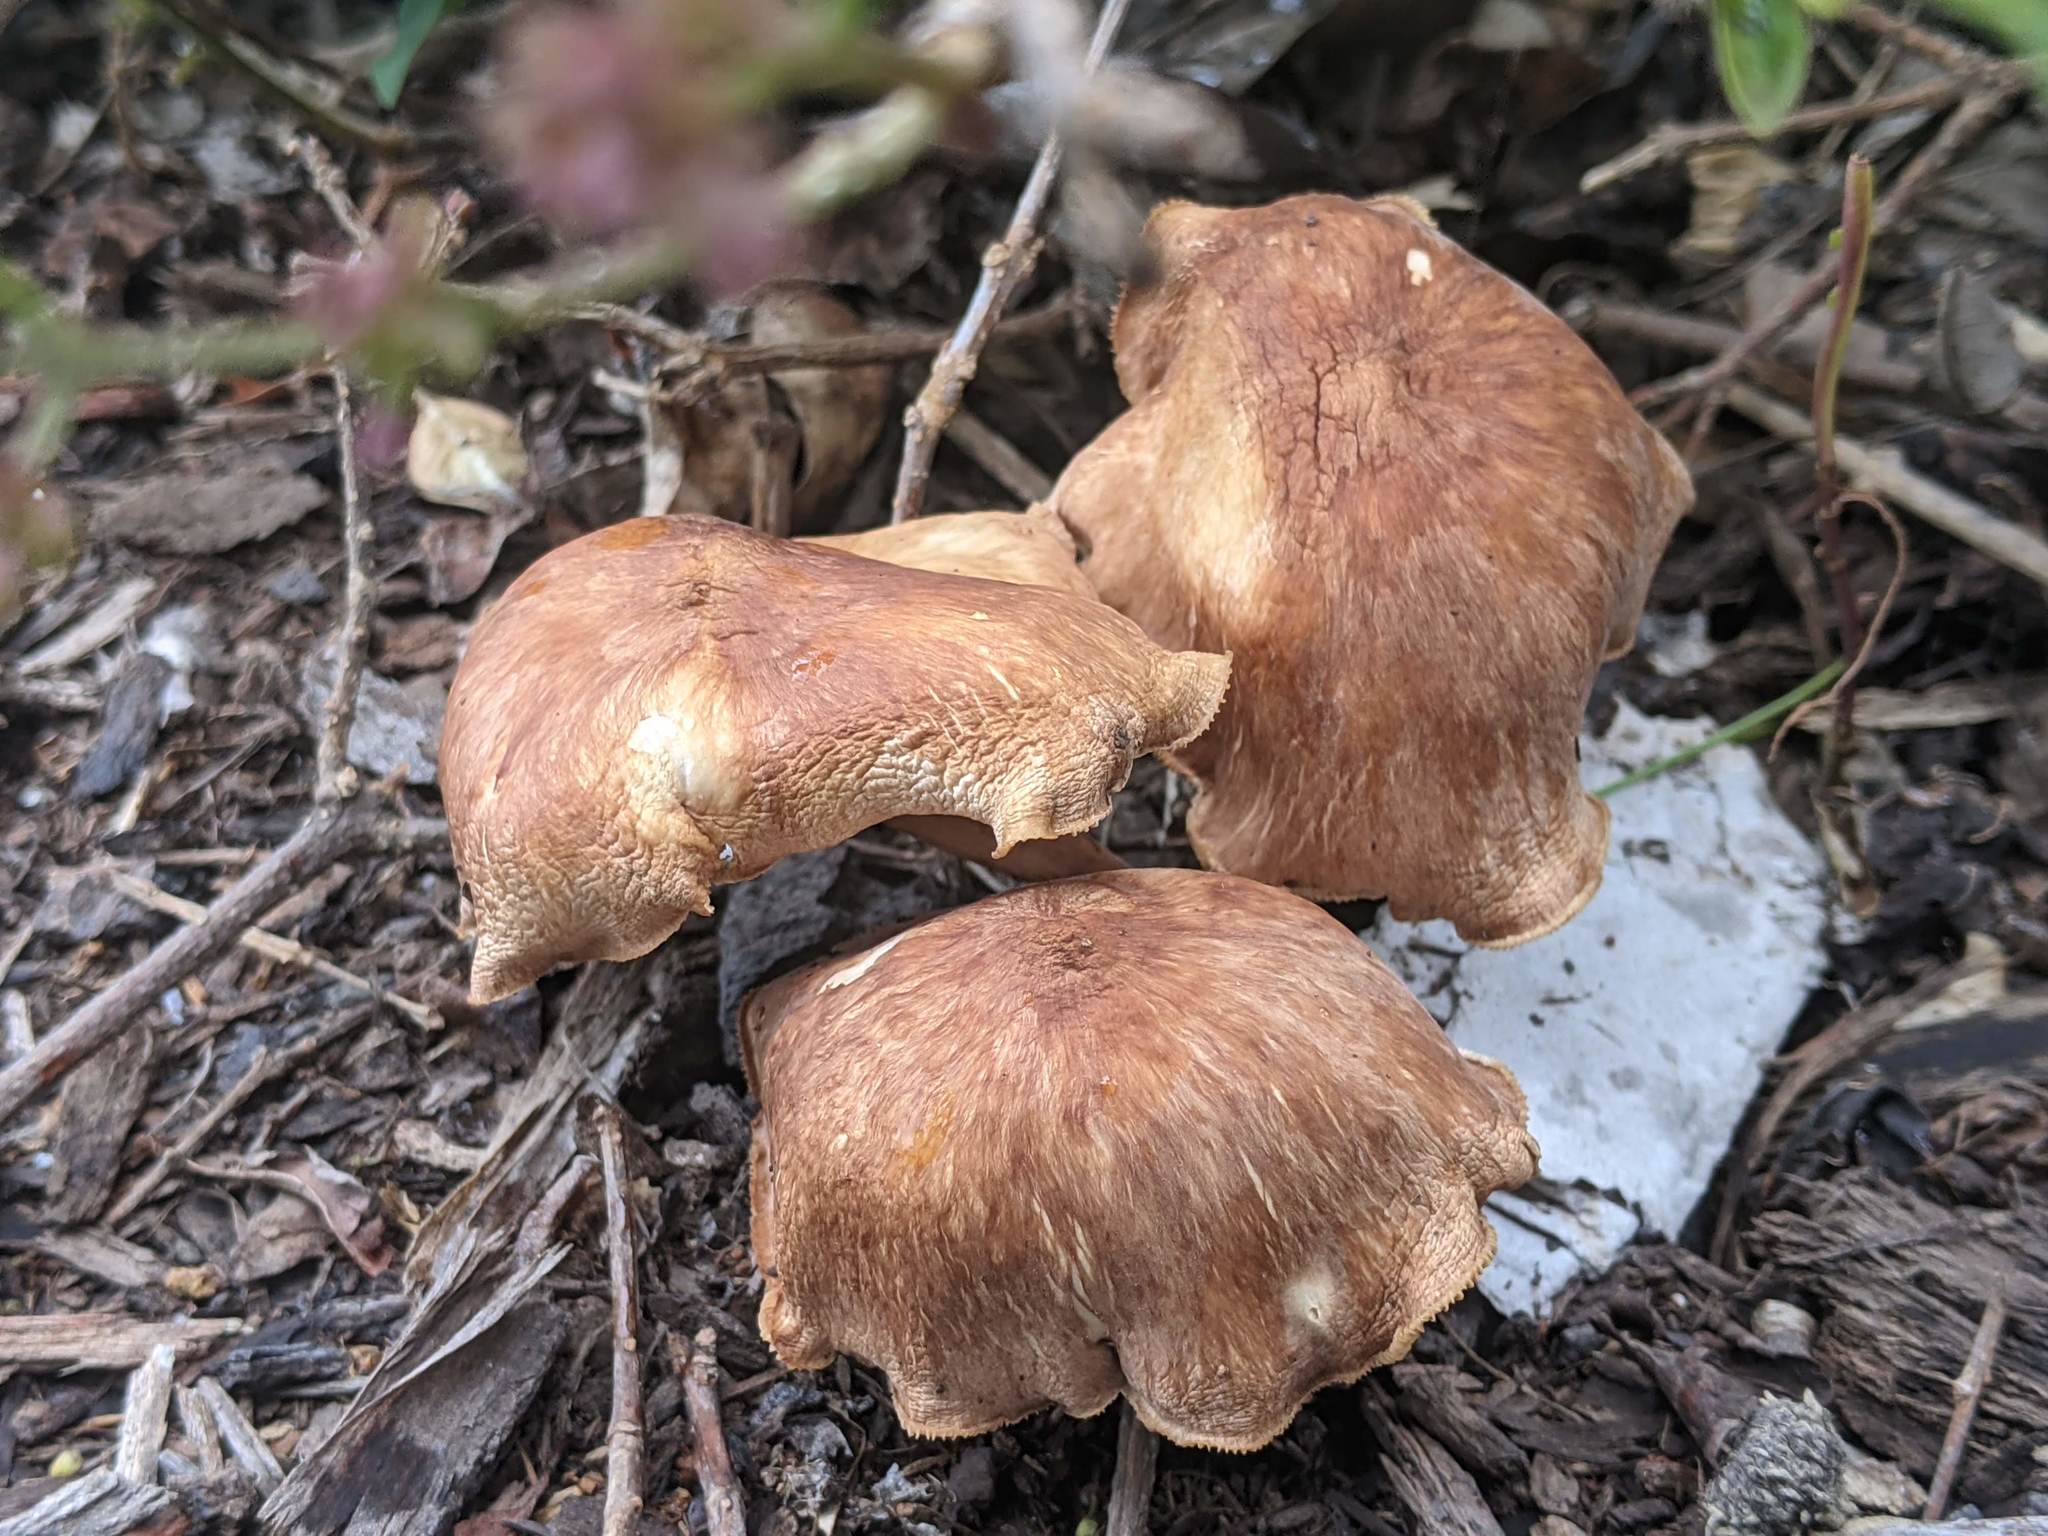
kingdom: Fungi
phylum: Basidiomycota
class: Agaricomycetes
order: Agaricales
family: Omphalotaceae
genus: Collybiopsis
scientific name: Collybiopsis luxurians
